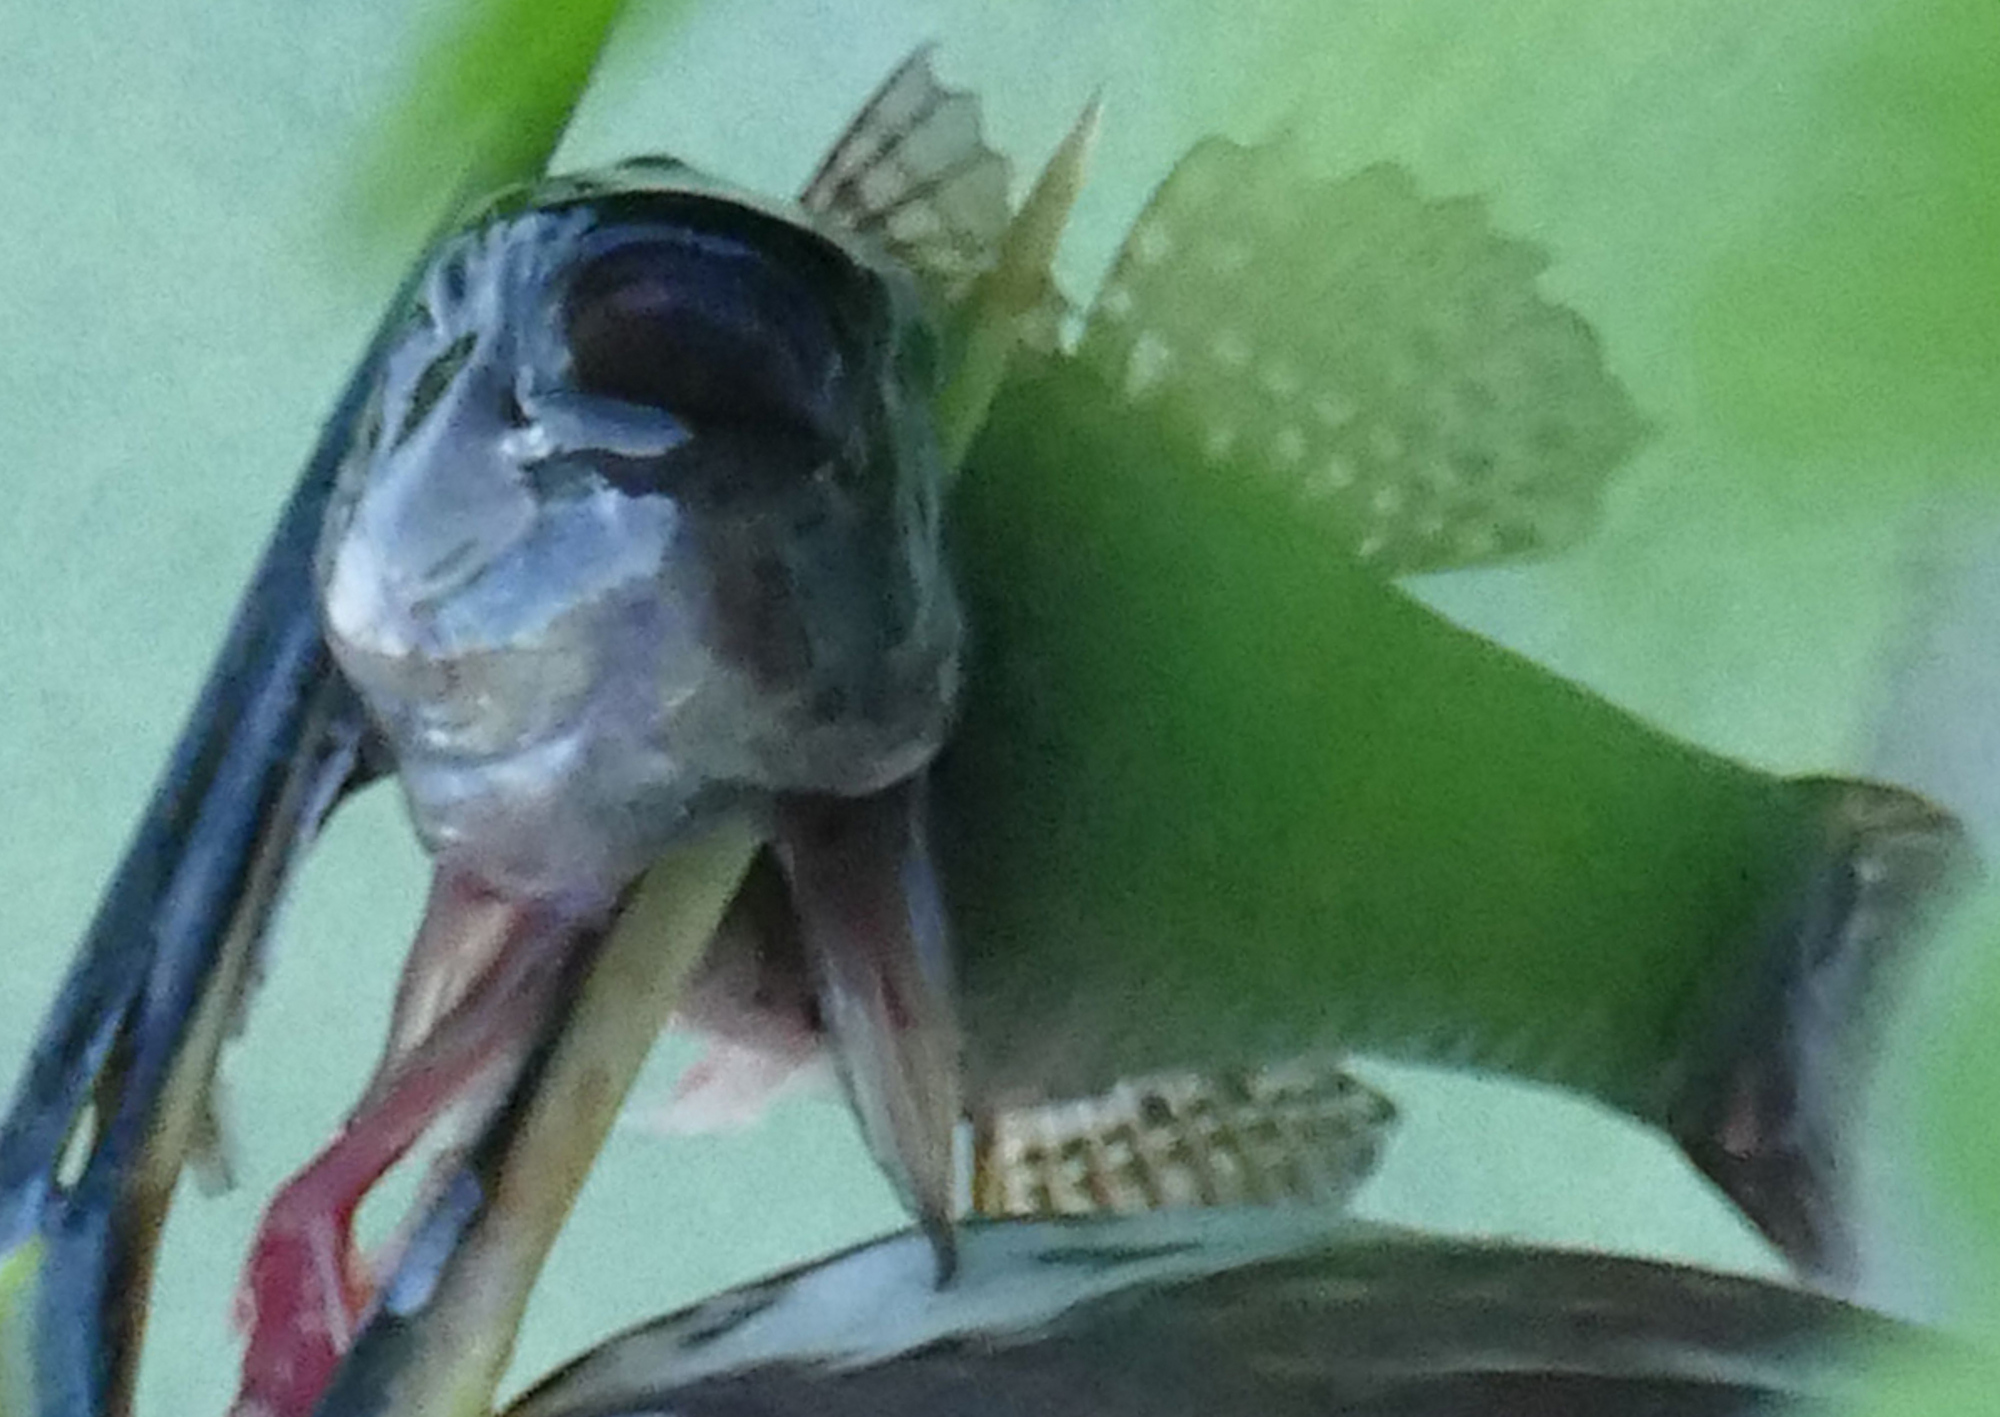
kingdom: Animalia
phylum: Chordata
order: Perciformes
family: Eleotridae
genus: Dormitator
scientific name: Dormitator maculatus
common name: Fat sleeper
